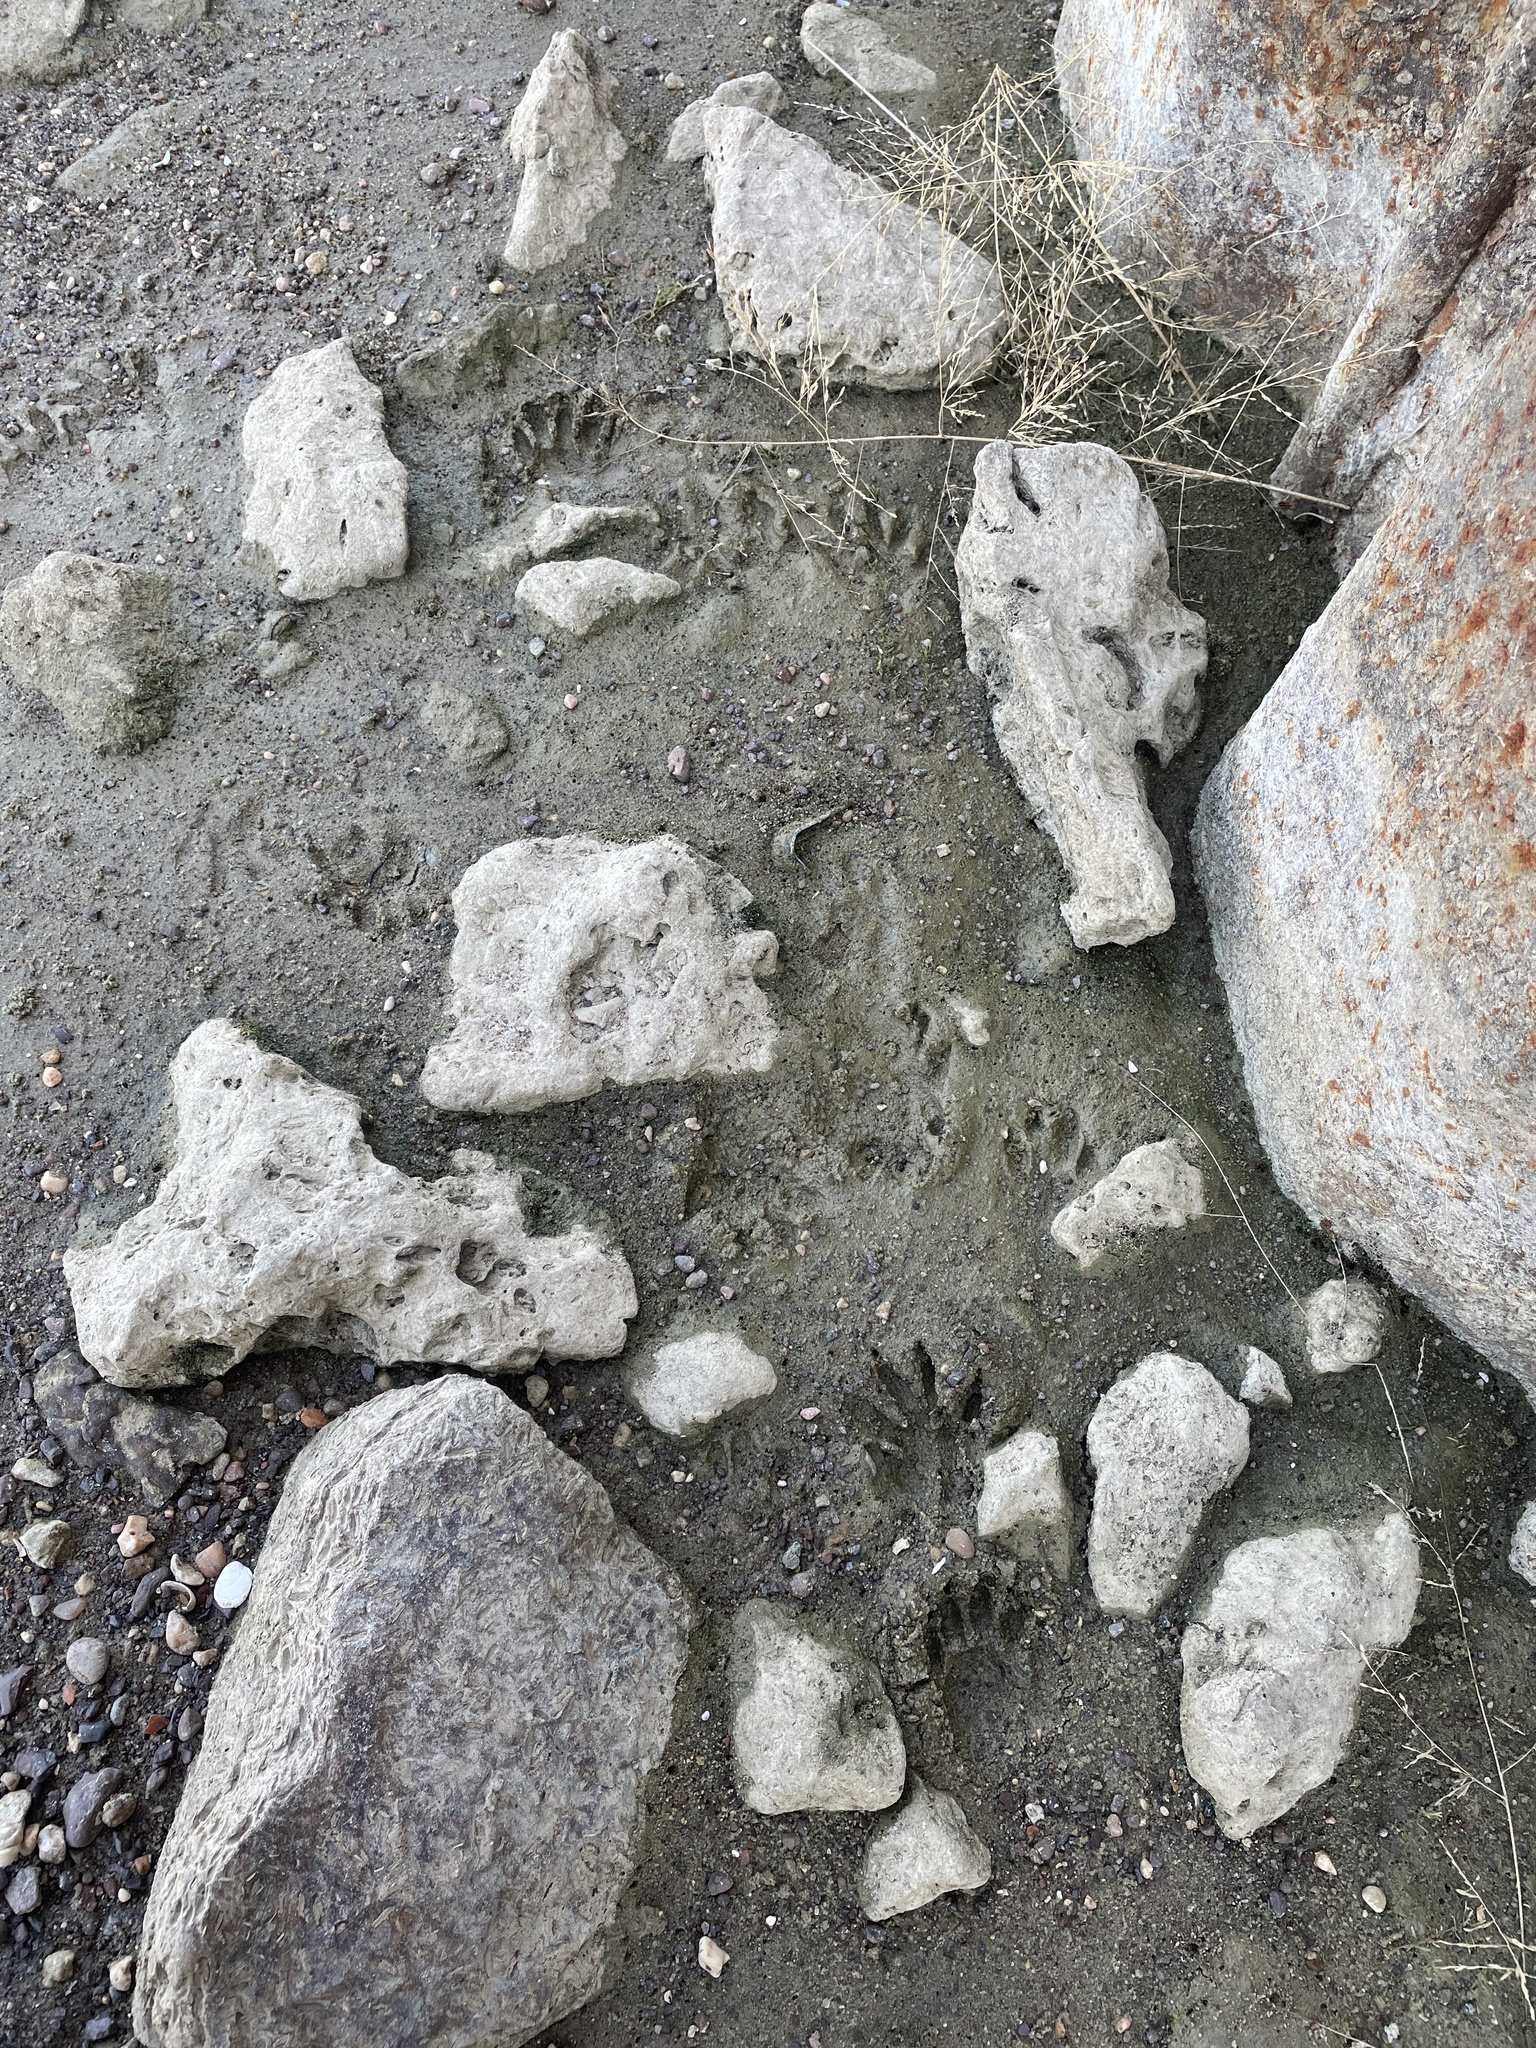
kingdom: Animalia
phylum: Chordata
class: Mammalia
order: Carnivora
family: Procyonidae
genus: Procyon
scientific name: Procyon lotor
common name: Raccoon
